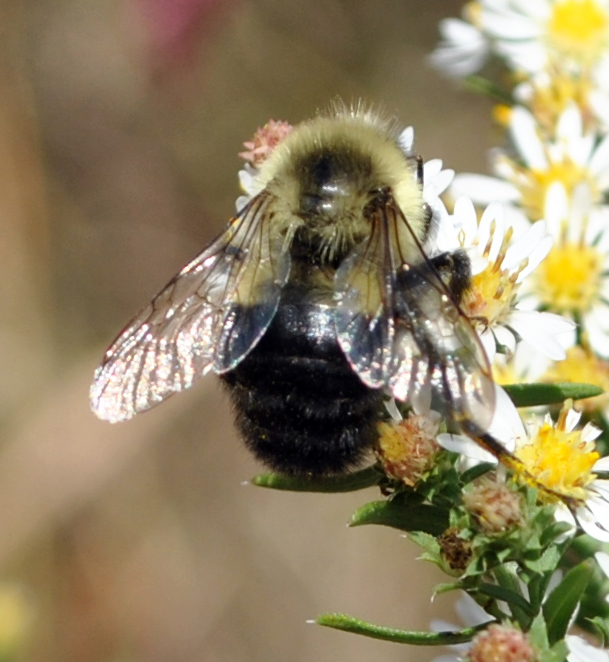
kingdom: Animalia
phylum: Arthropoda
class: Insecta
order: Hymenoptera
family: Apidae
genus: Bombus
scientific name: Bombus impatiens
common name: Common eastern bumble bee
